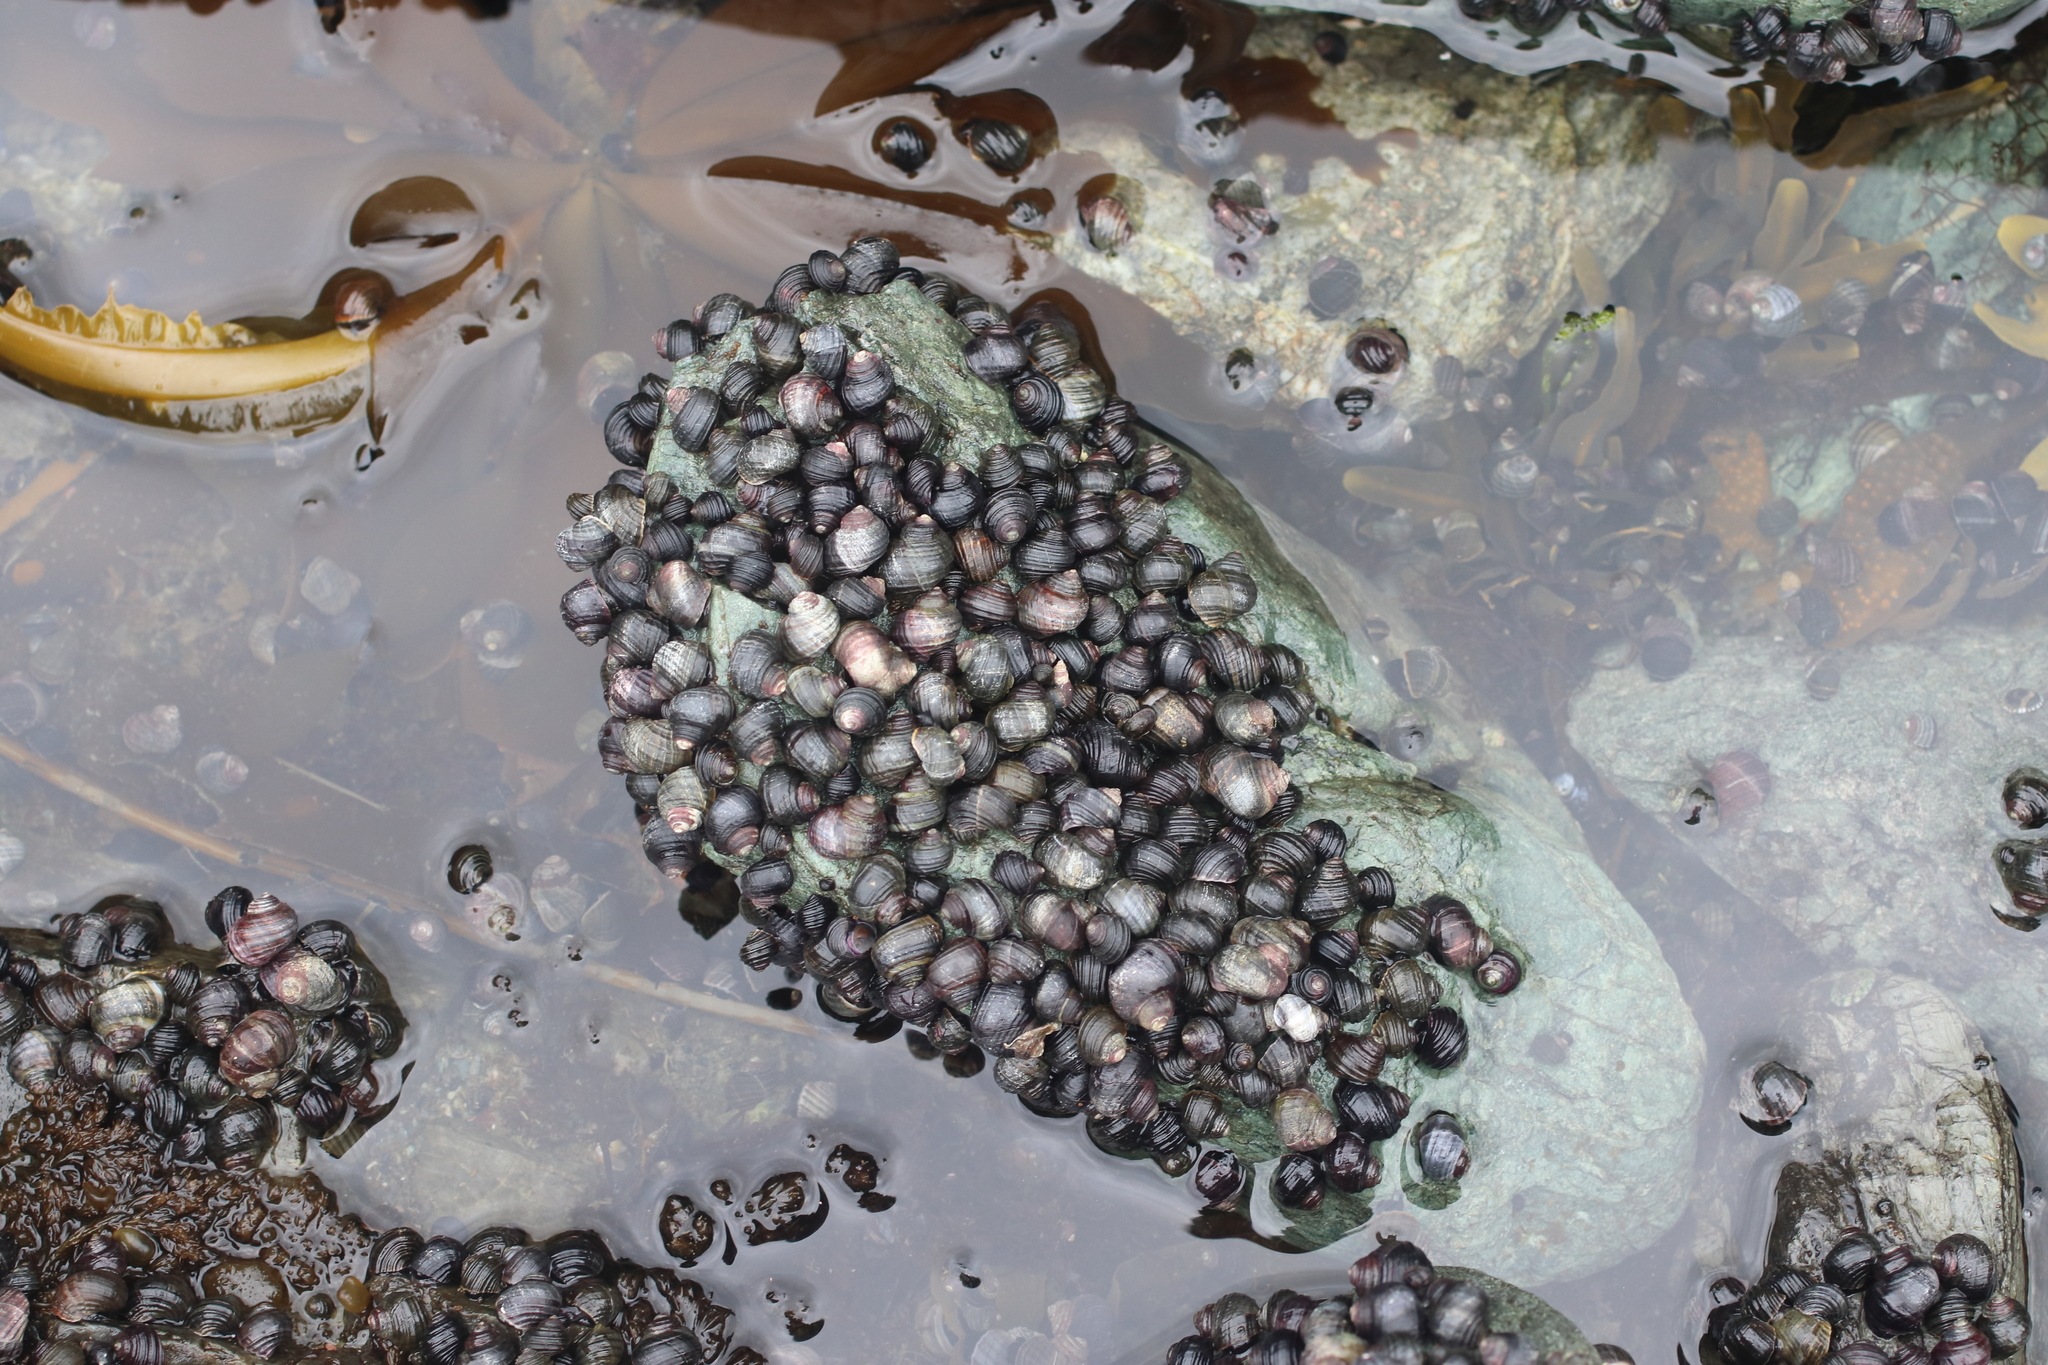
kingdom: Animalia
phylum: Mollusca
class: Gastropoda
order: Littorinimorpha
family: Littorinidae
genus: Littorina
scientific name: Littorina sitkana
